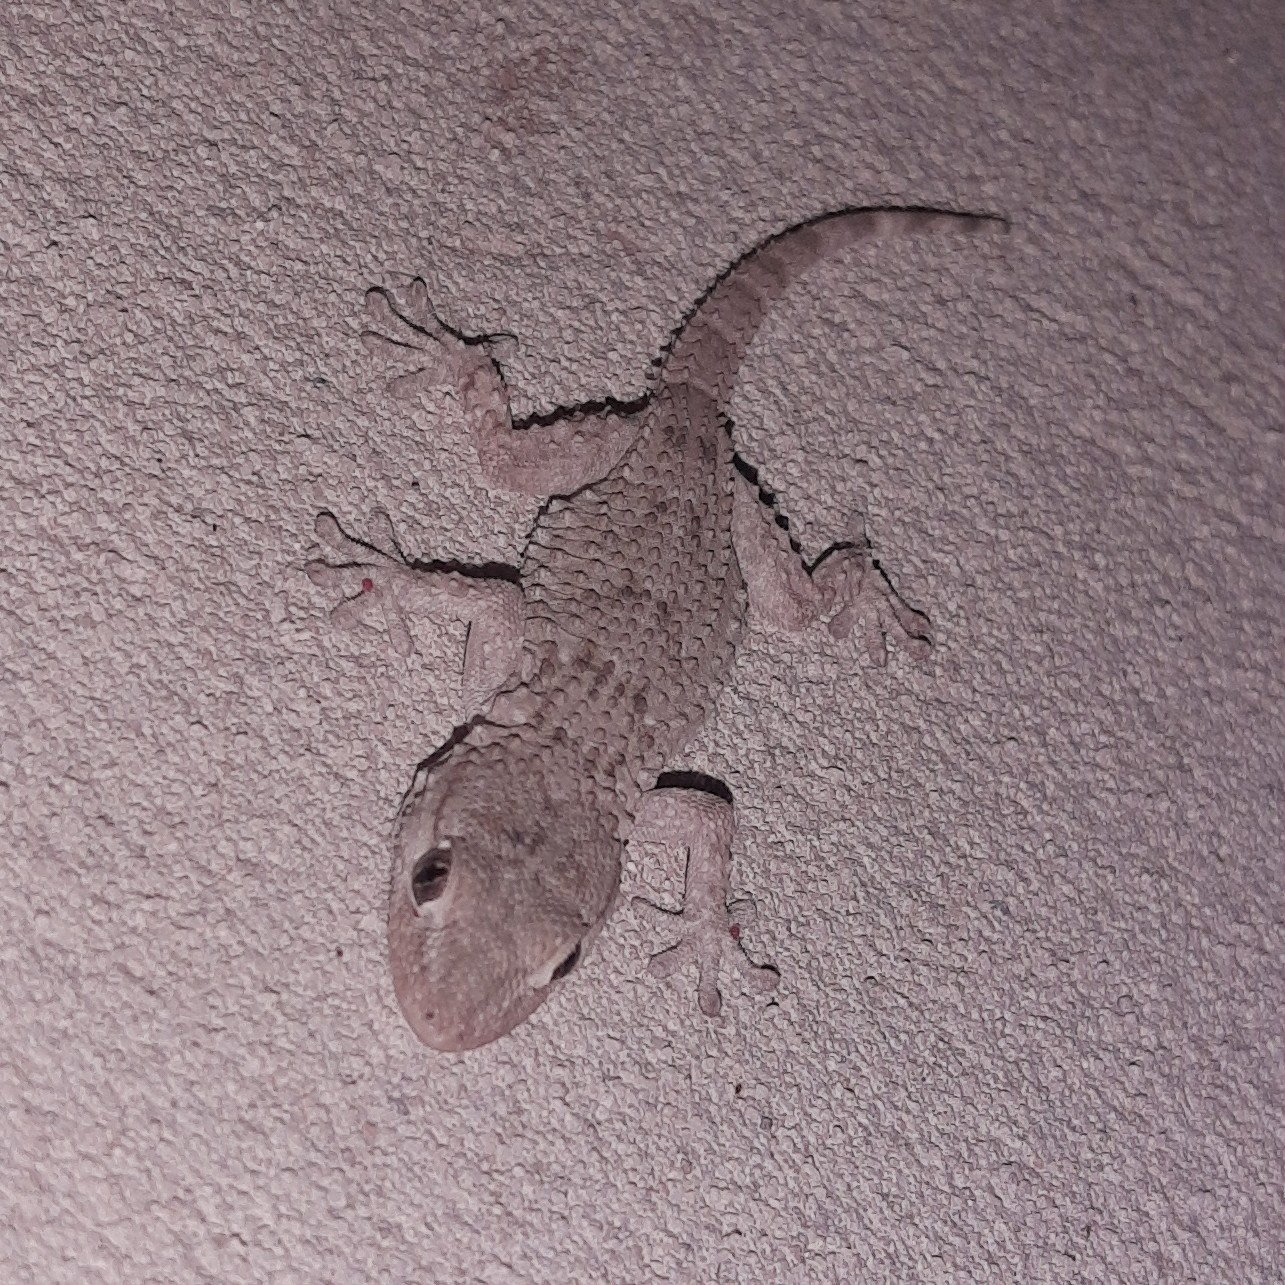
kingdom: Animalia
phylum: Chordata
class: Squamata
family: Phyllodactylidae
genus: Tarentola
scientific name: Tarentola mauritanica
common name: Moorish gecko
